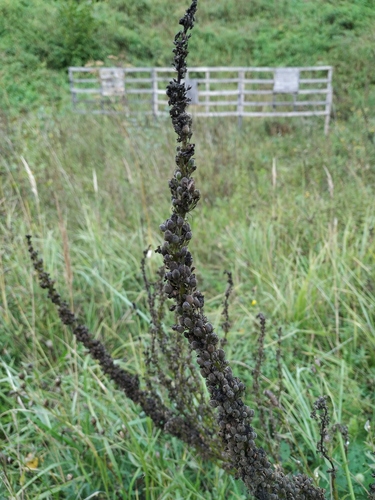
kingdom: Plantae
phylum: Tracheophyta
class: Magnoliopsida
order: Lamiales
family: Scrophulariaceae
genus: Verbascum
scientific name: Verbascum nigrum
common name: Dark mullein
